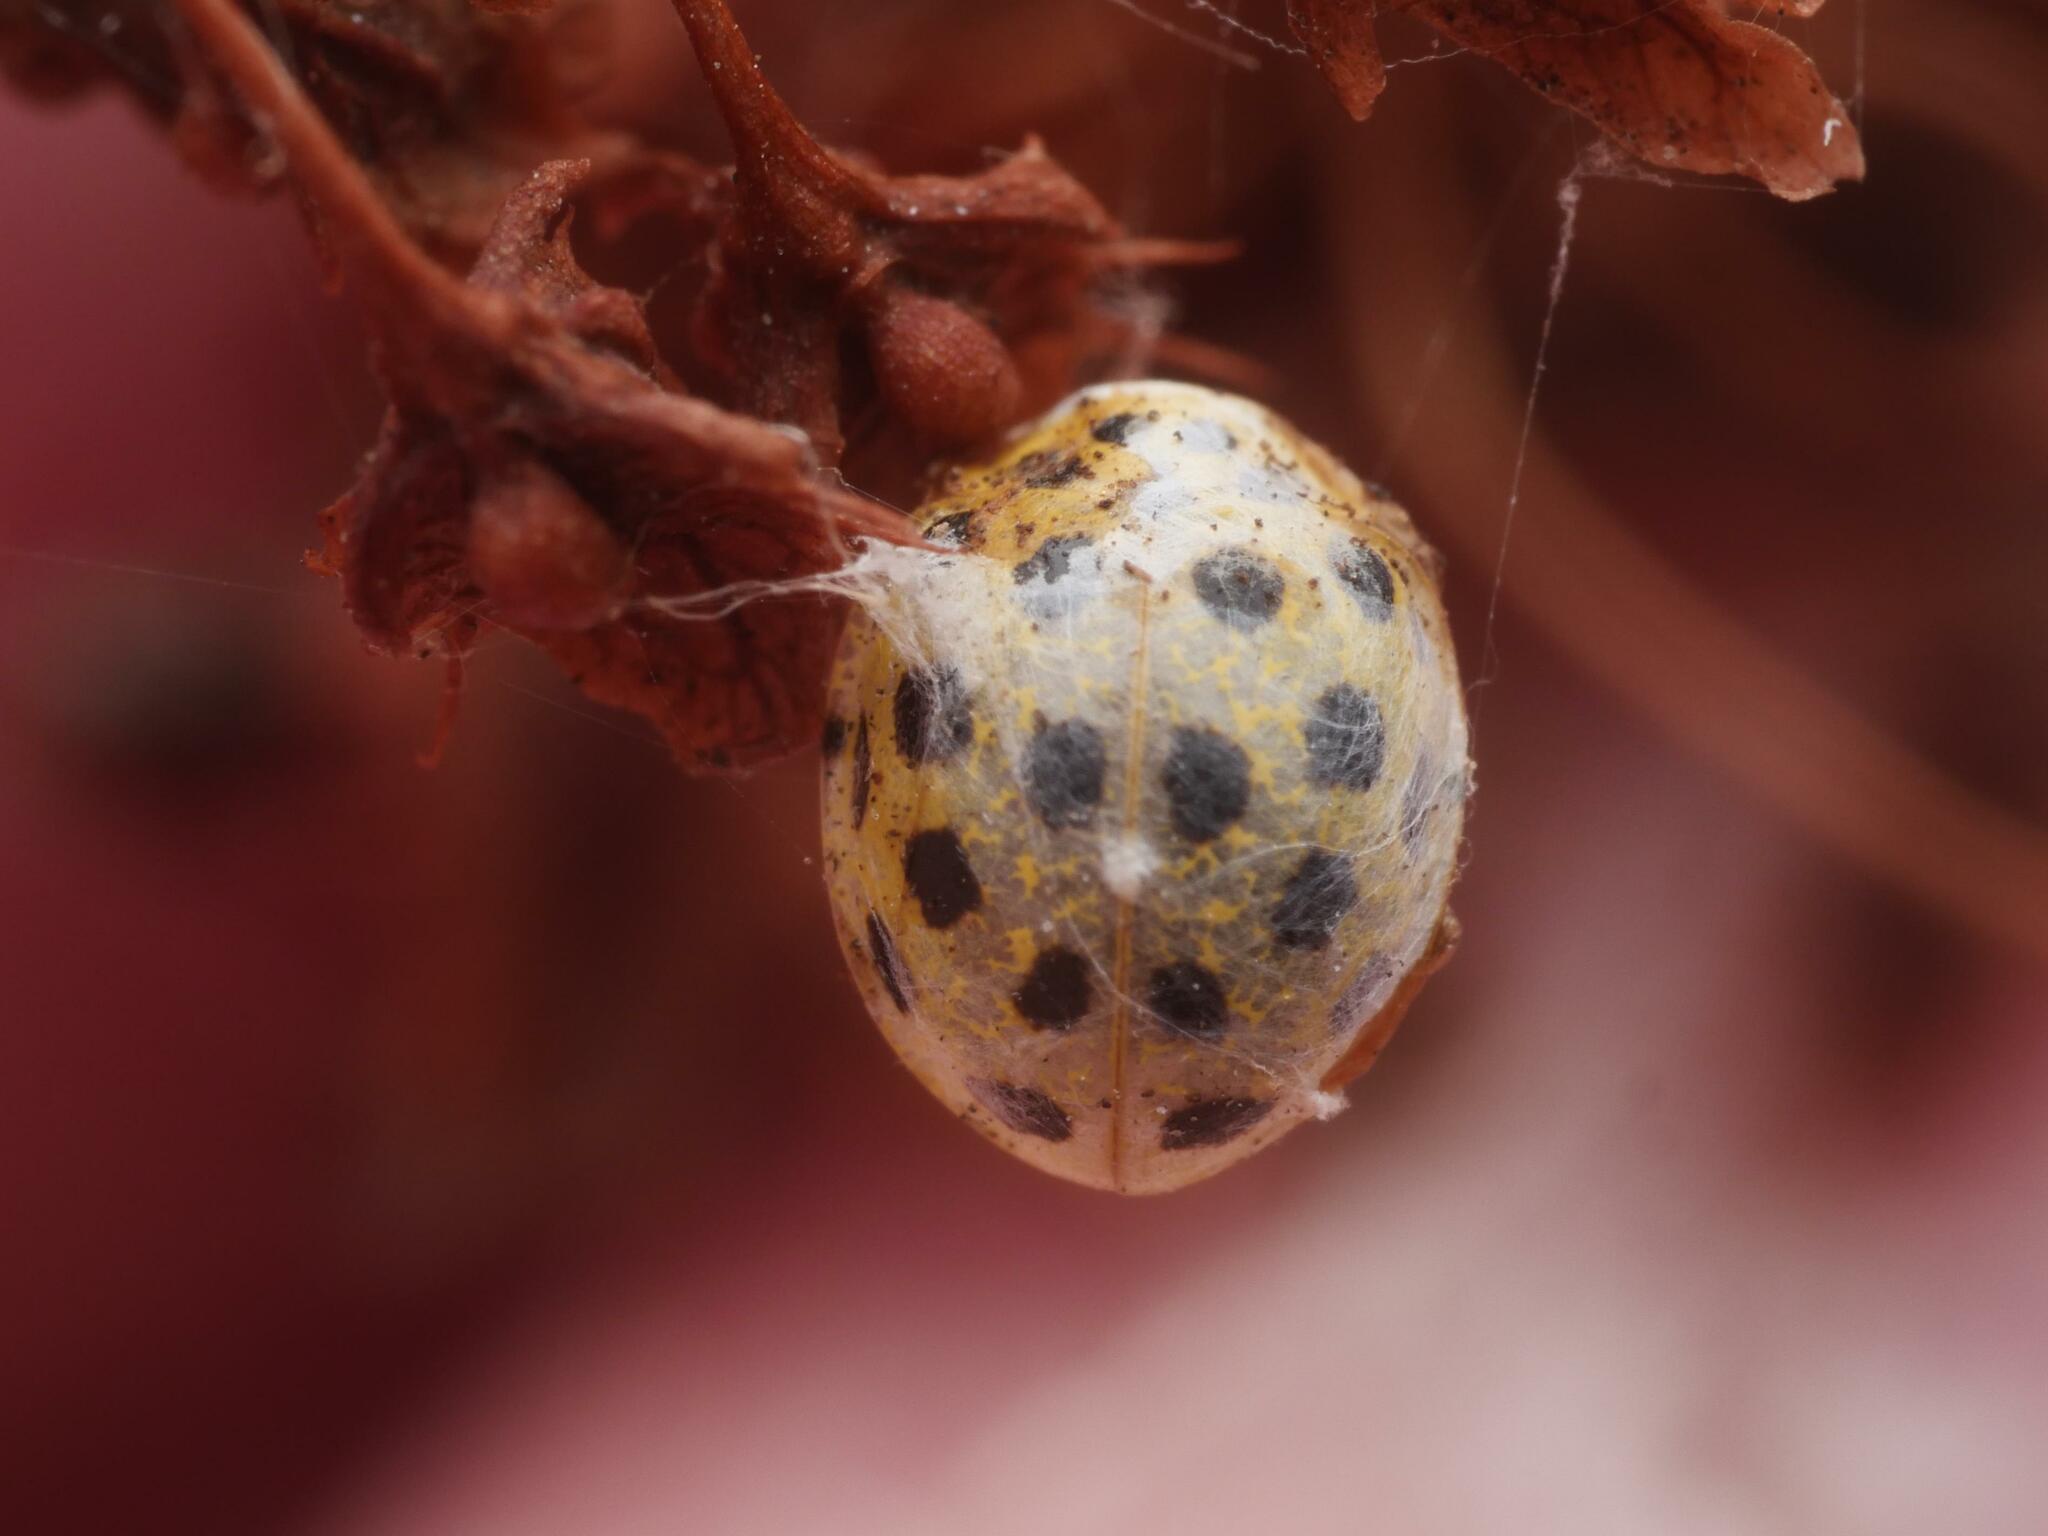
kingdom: Animalia
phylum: Arthropoda
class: Insecta
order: Coleoptera
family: Coccinellidae
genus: Psyllobora
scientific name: Psyllobora vigintiduopunctata
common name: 22-spot ladybird
